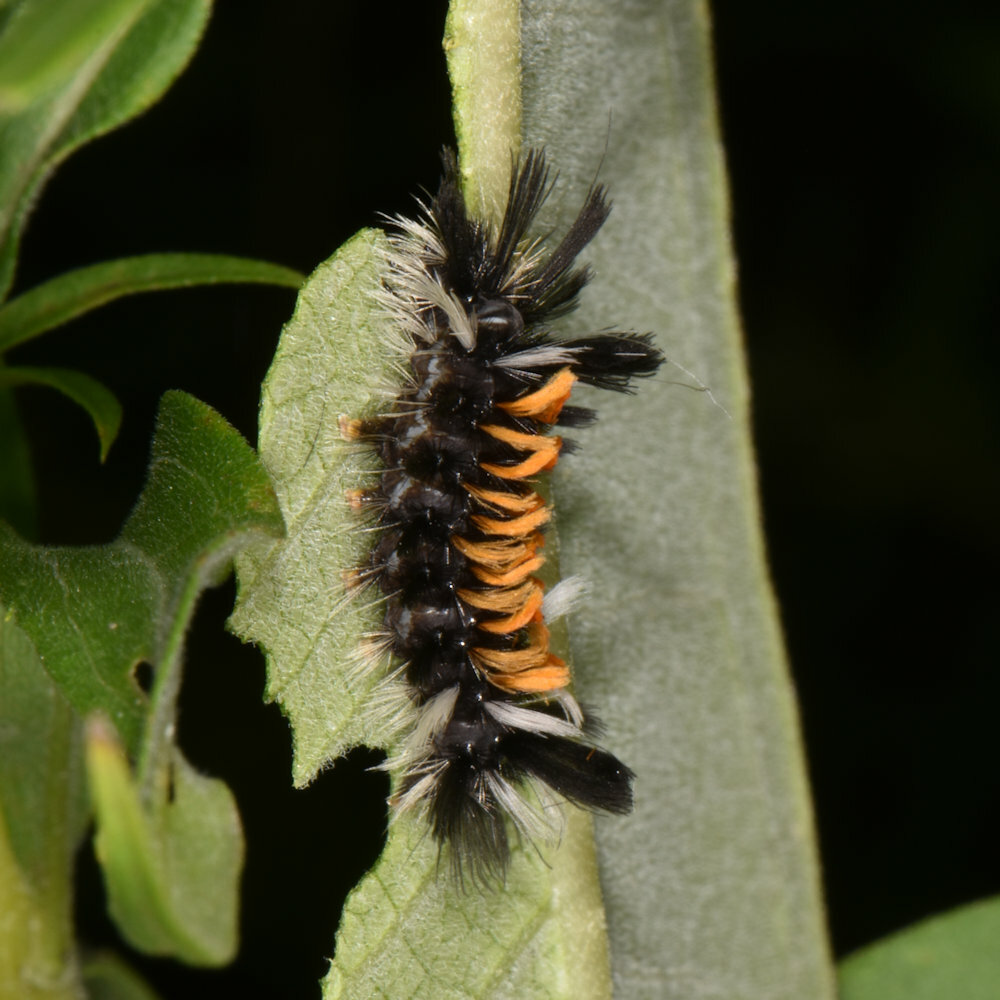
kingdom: Animalia
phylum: Arthropoda
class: Insecta
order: Lepidoptera
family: Erebidae
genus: Euchaetes
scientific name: Euchaetes egle
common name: Milkweed tussock moth
